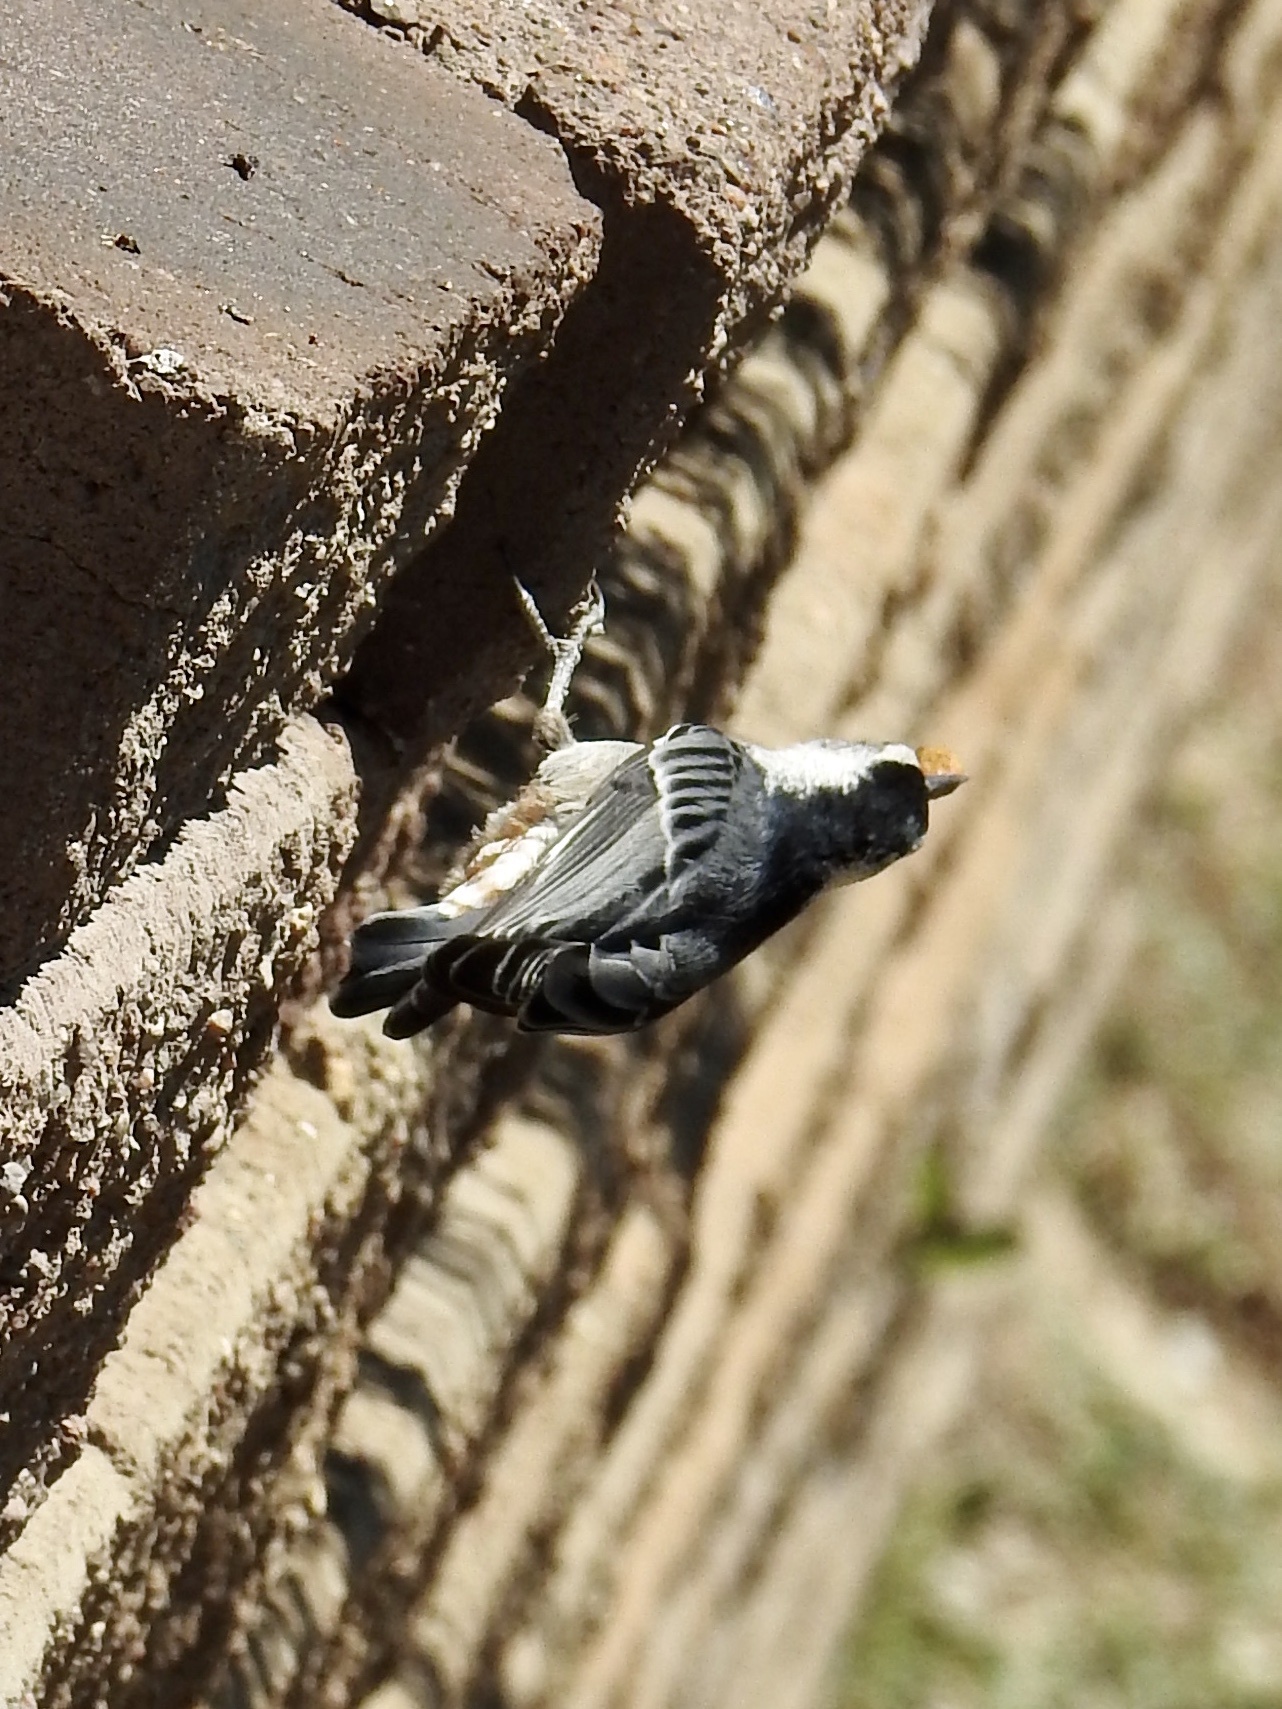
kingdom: Animalia
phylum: Chordata
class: Aves
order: Passeriformes
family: Sittidae
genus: Sitta
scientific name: Sitta carolinensis
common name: White-breasted nuthatch
